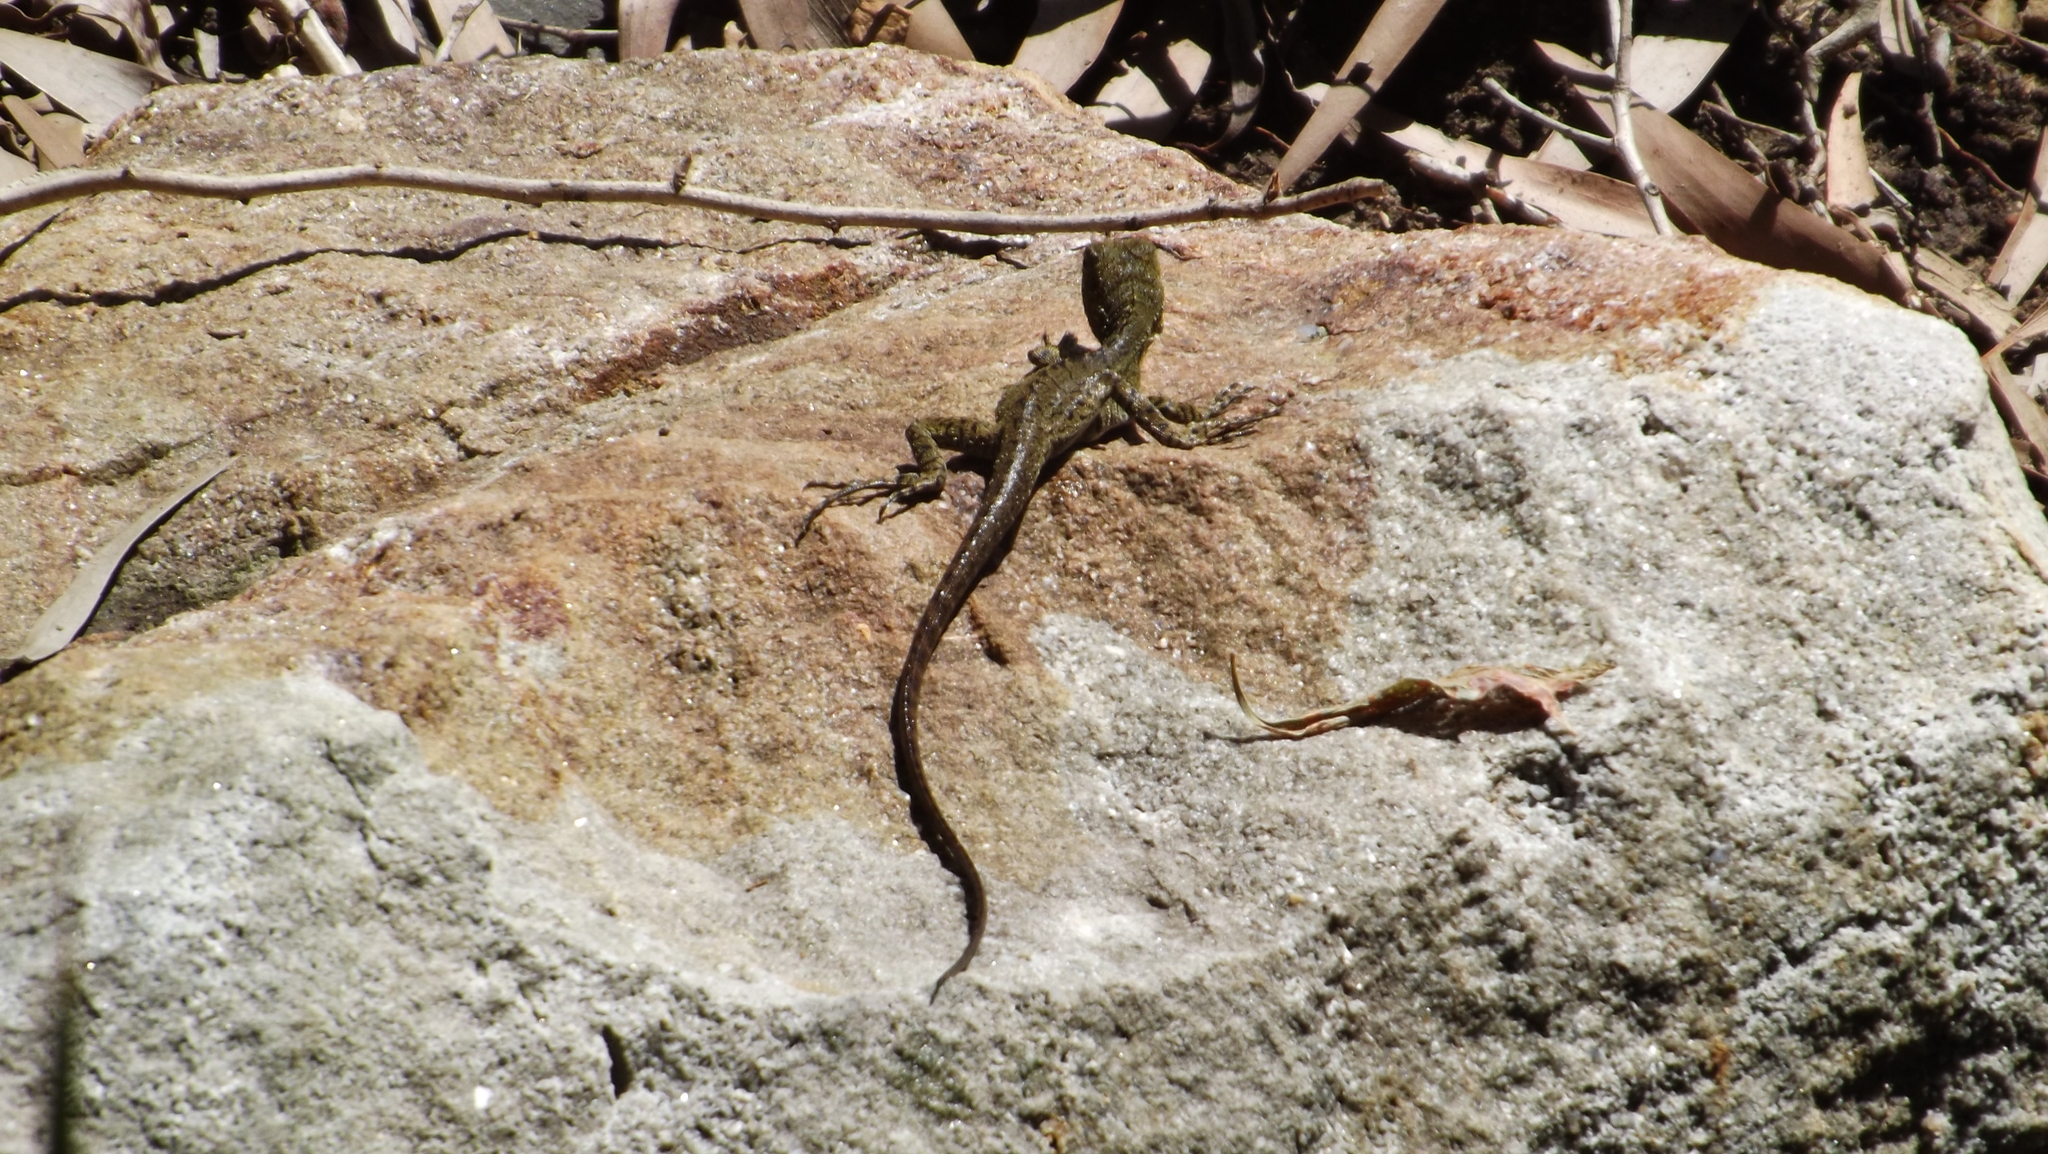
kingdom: Animalia
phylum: Chordata
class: Squamata
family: Agamidae
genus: Intellagama
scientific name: Intellagama lesueurii
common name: Eastern water dragon
